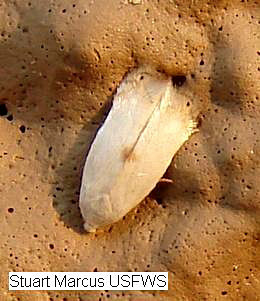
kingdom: Animalia
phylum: Arthropoda
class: Insecta
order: Lepidoptera
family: Opostegidae
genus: Pseudopostega
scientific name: Pseudopostega quadristrigella
